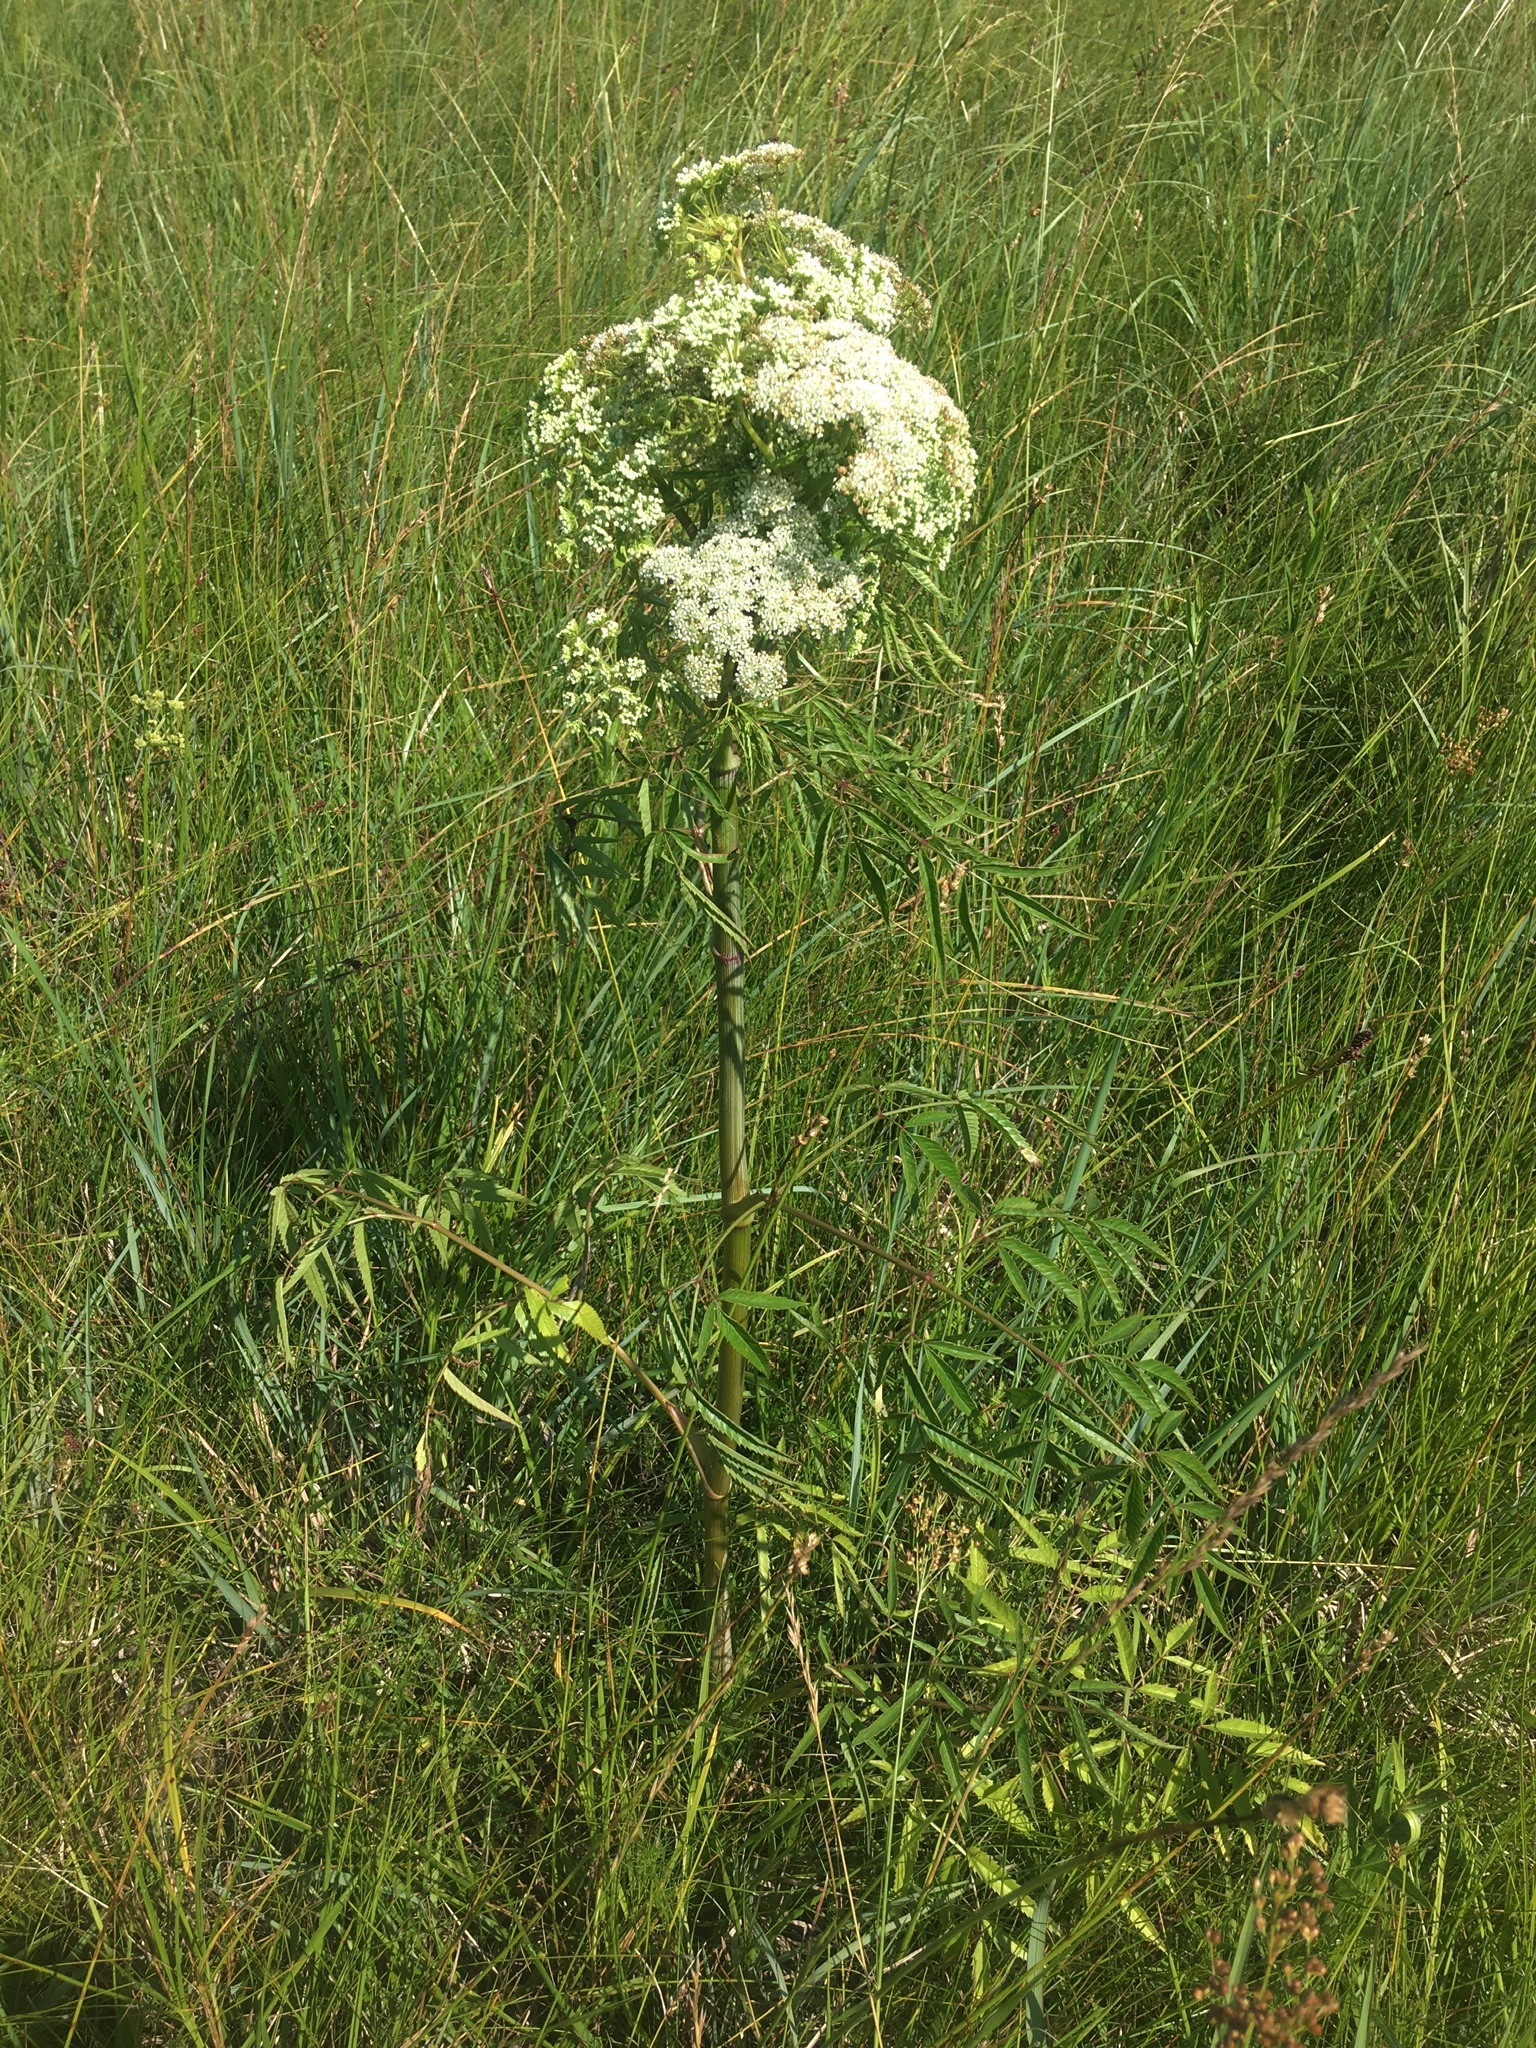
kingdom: Plantae
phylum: Tracheophyta
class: Magnoliopsida
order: Apiales
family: Apiaceae
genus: Cicuta
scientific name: Cicuta maculata
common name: Spotted cowbane
